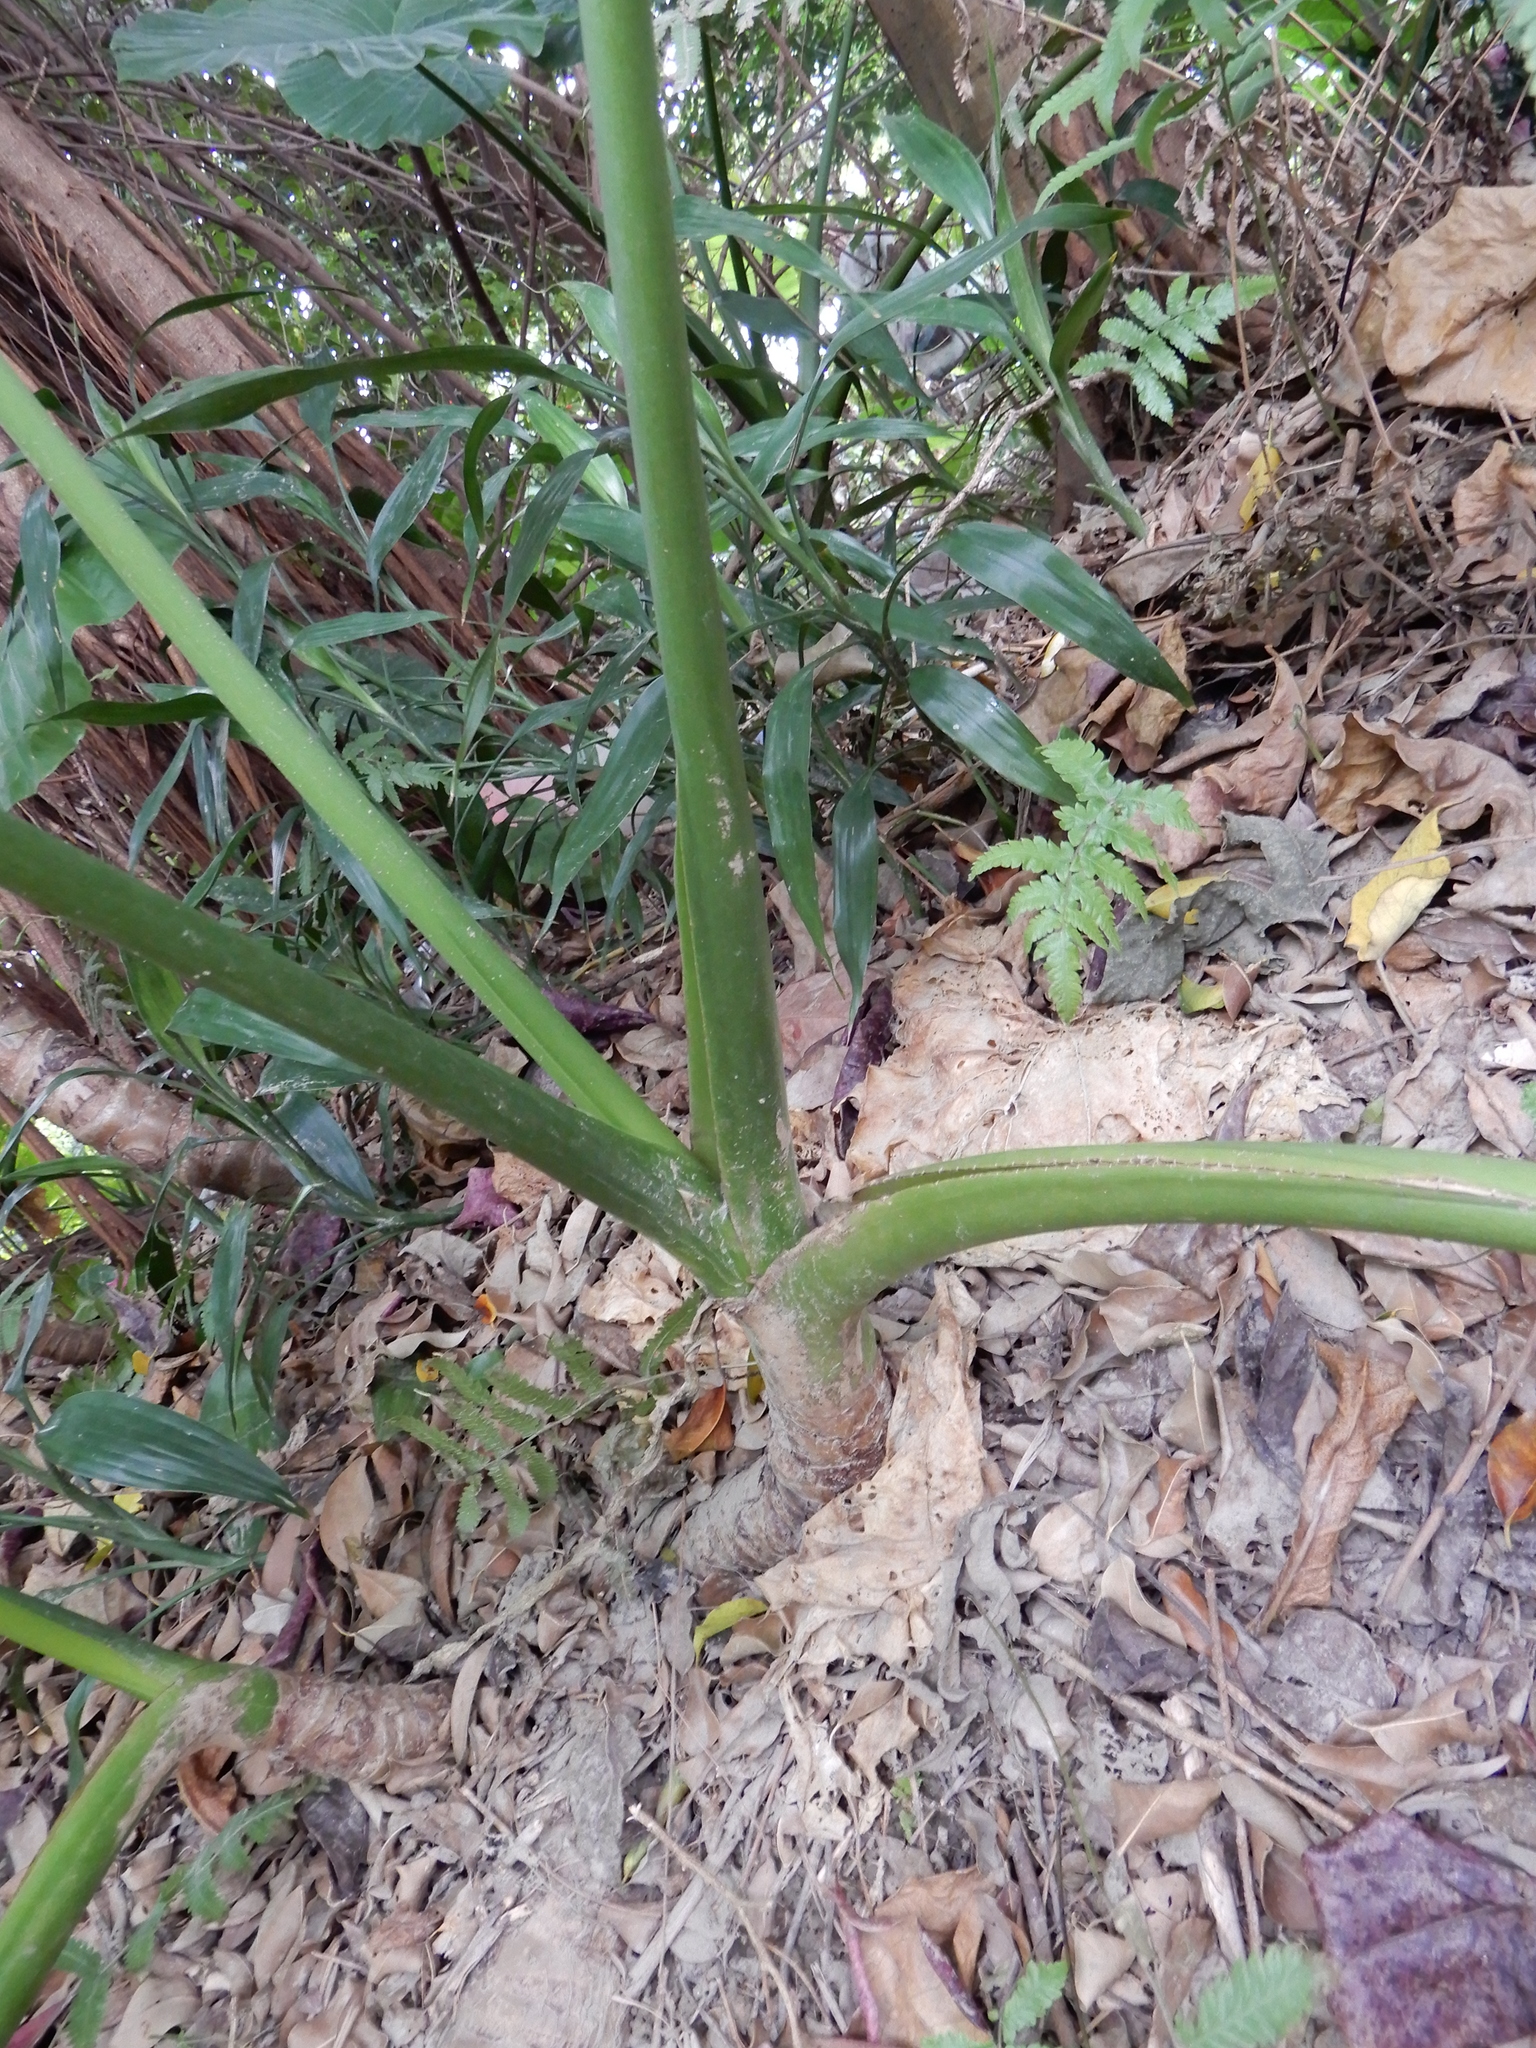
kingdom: Plantae
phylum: Tracheophyta
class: Liliopsida
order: Alismatales
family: Araceae
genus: Alocasia
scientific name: Alocasia odora
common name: Asian taro
